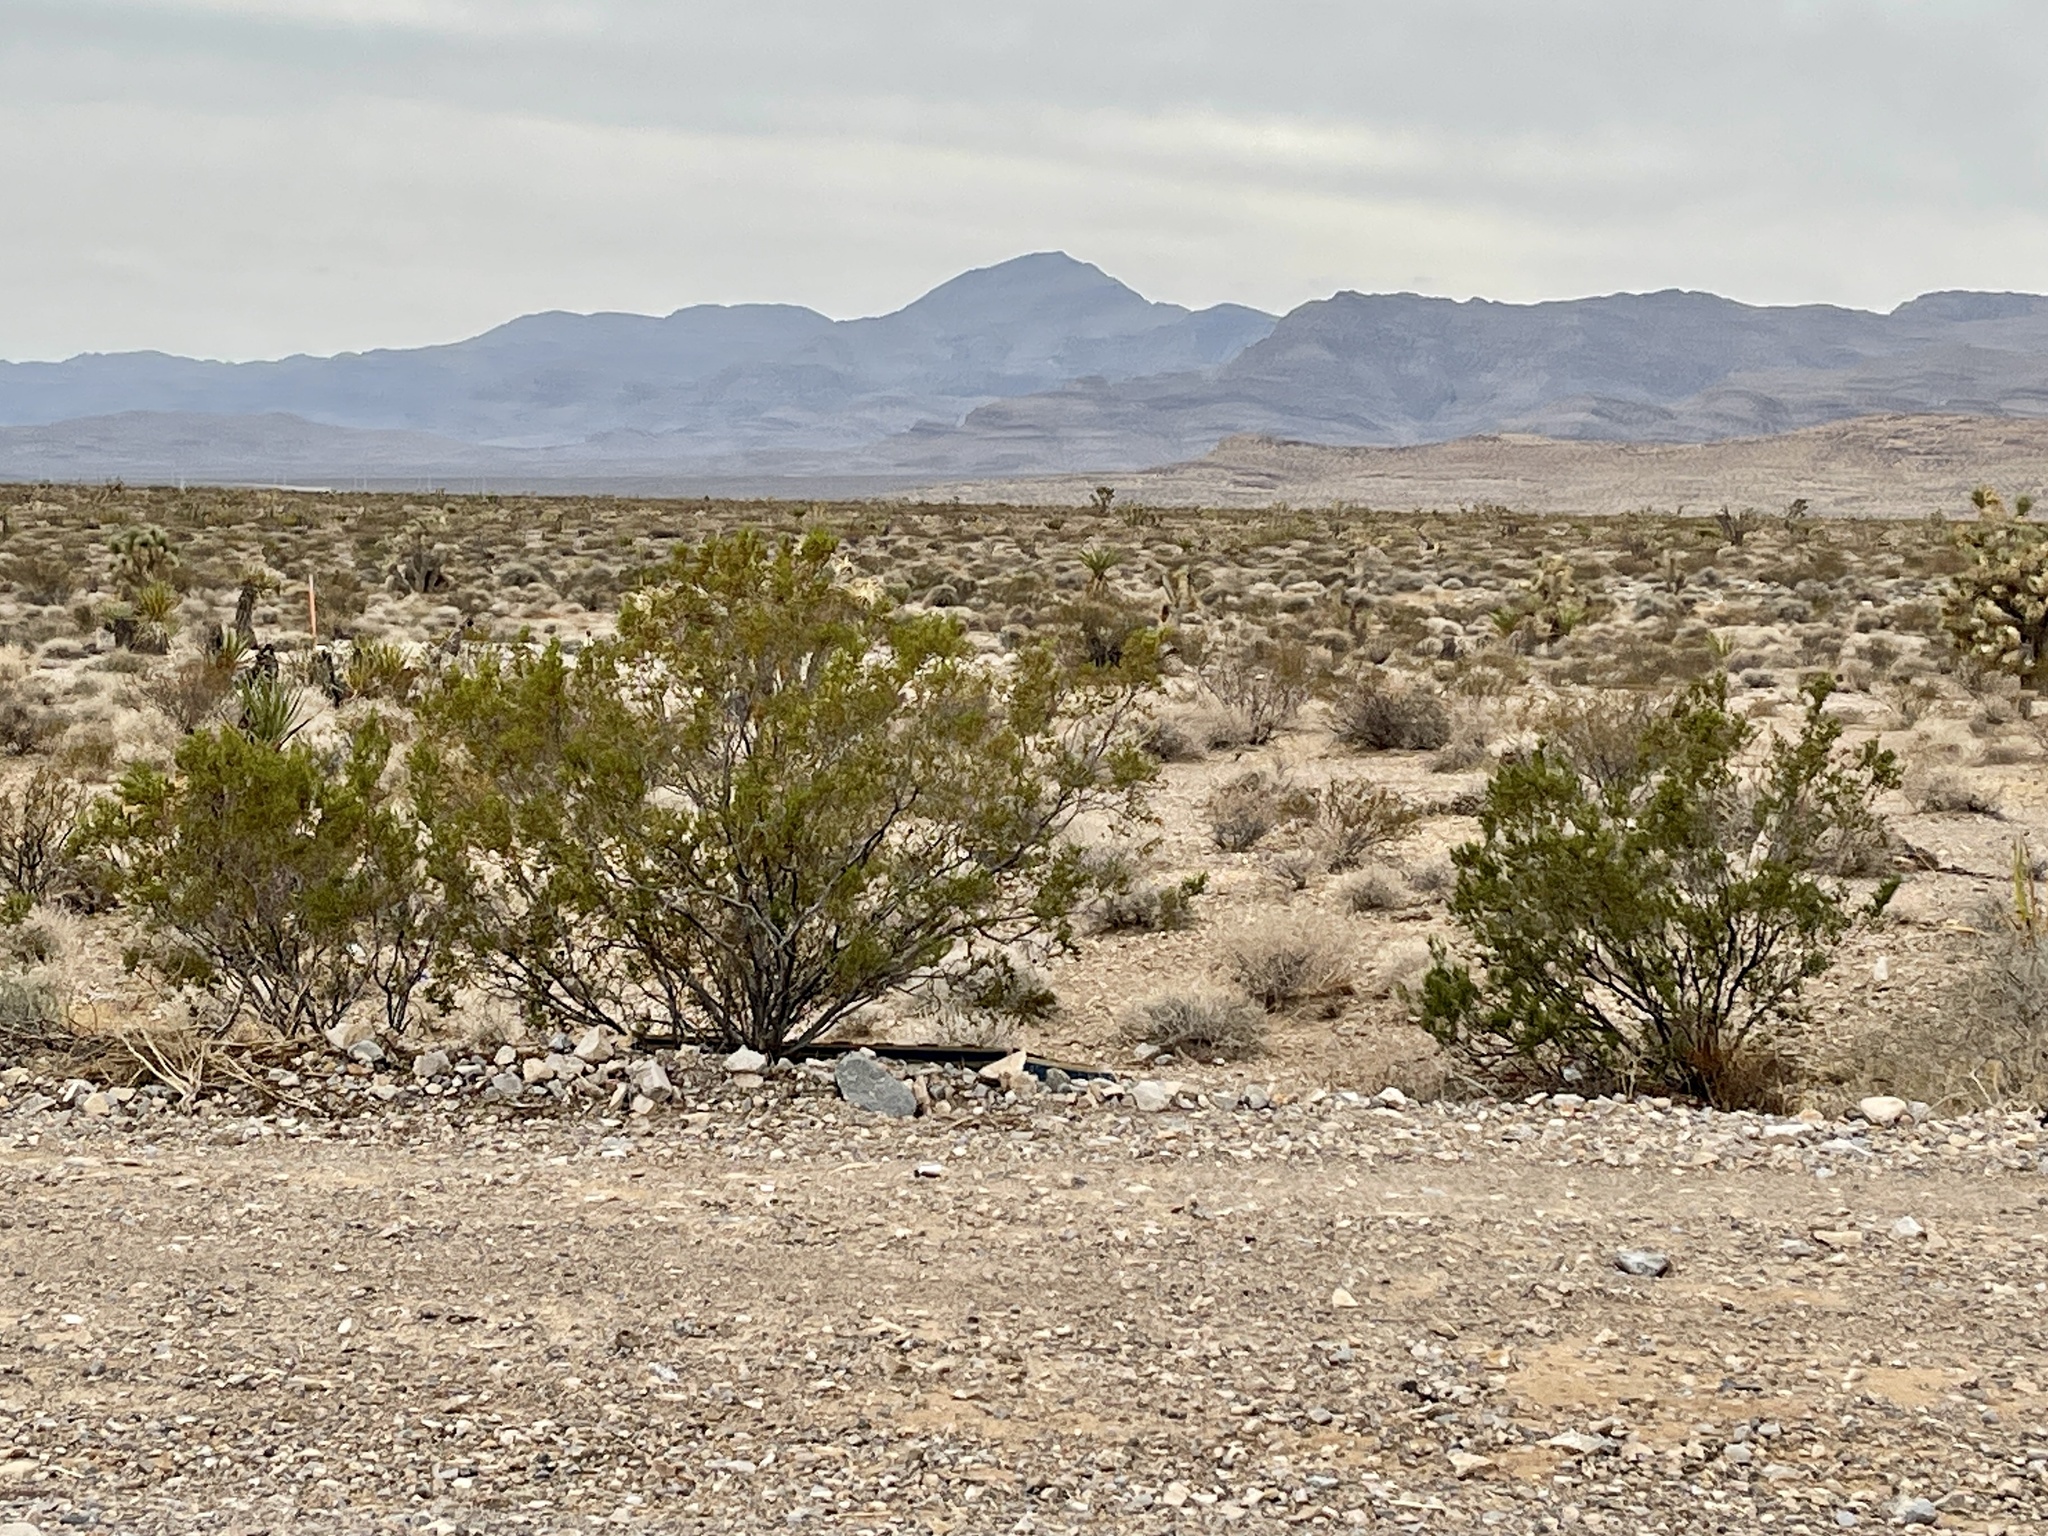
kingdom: Plantae
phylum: Tracheophyta
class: Magnoliopsida
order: Zygophyllales
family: Zygophyllaceae
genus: Larrea
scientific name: Larrea tridentata
